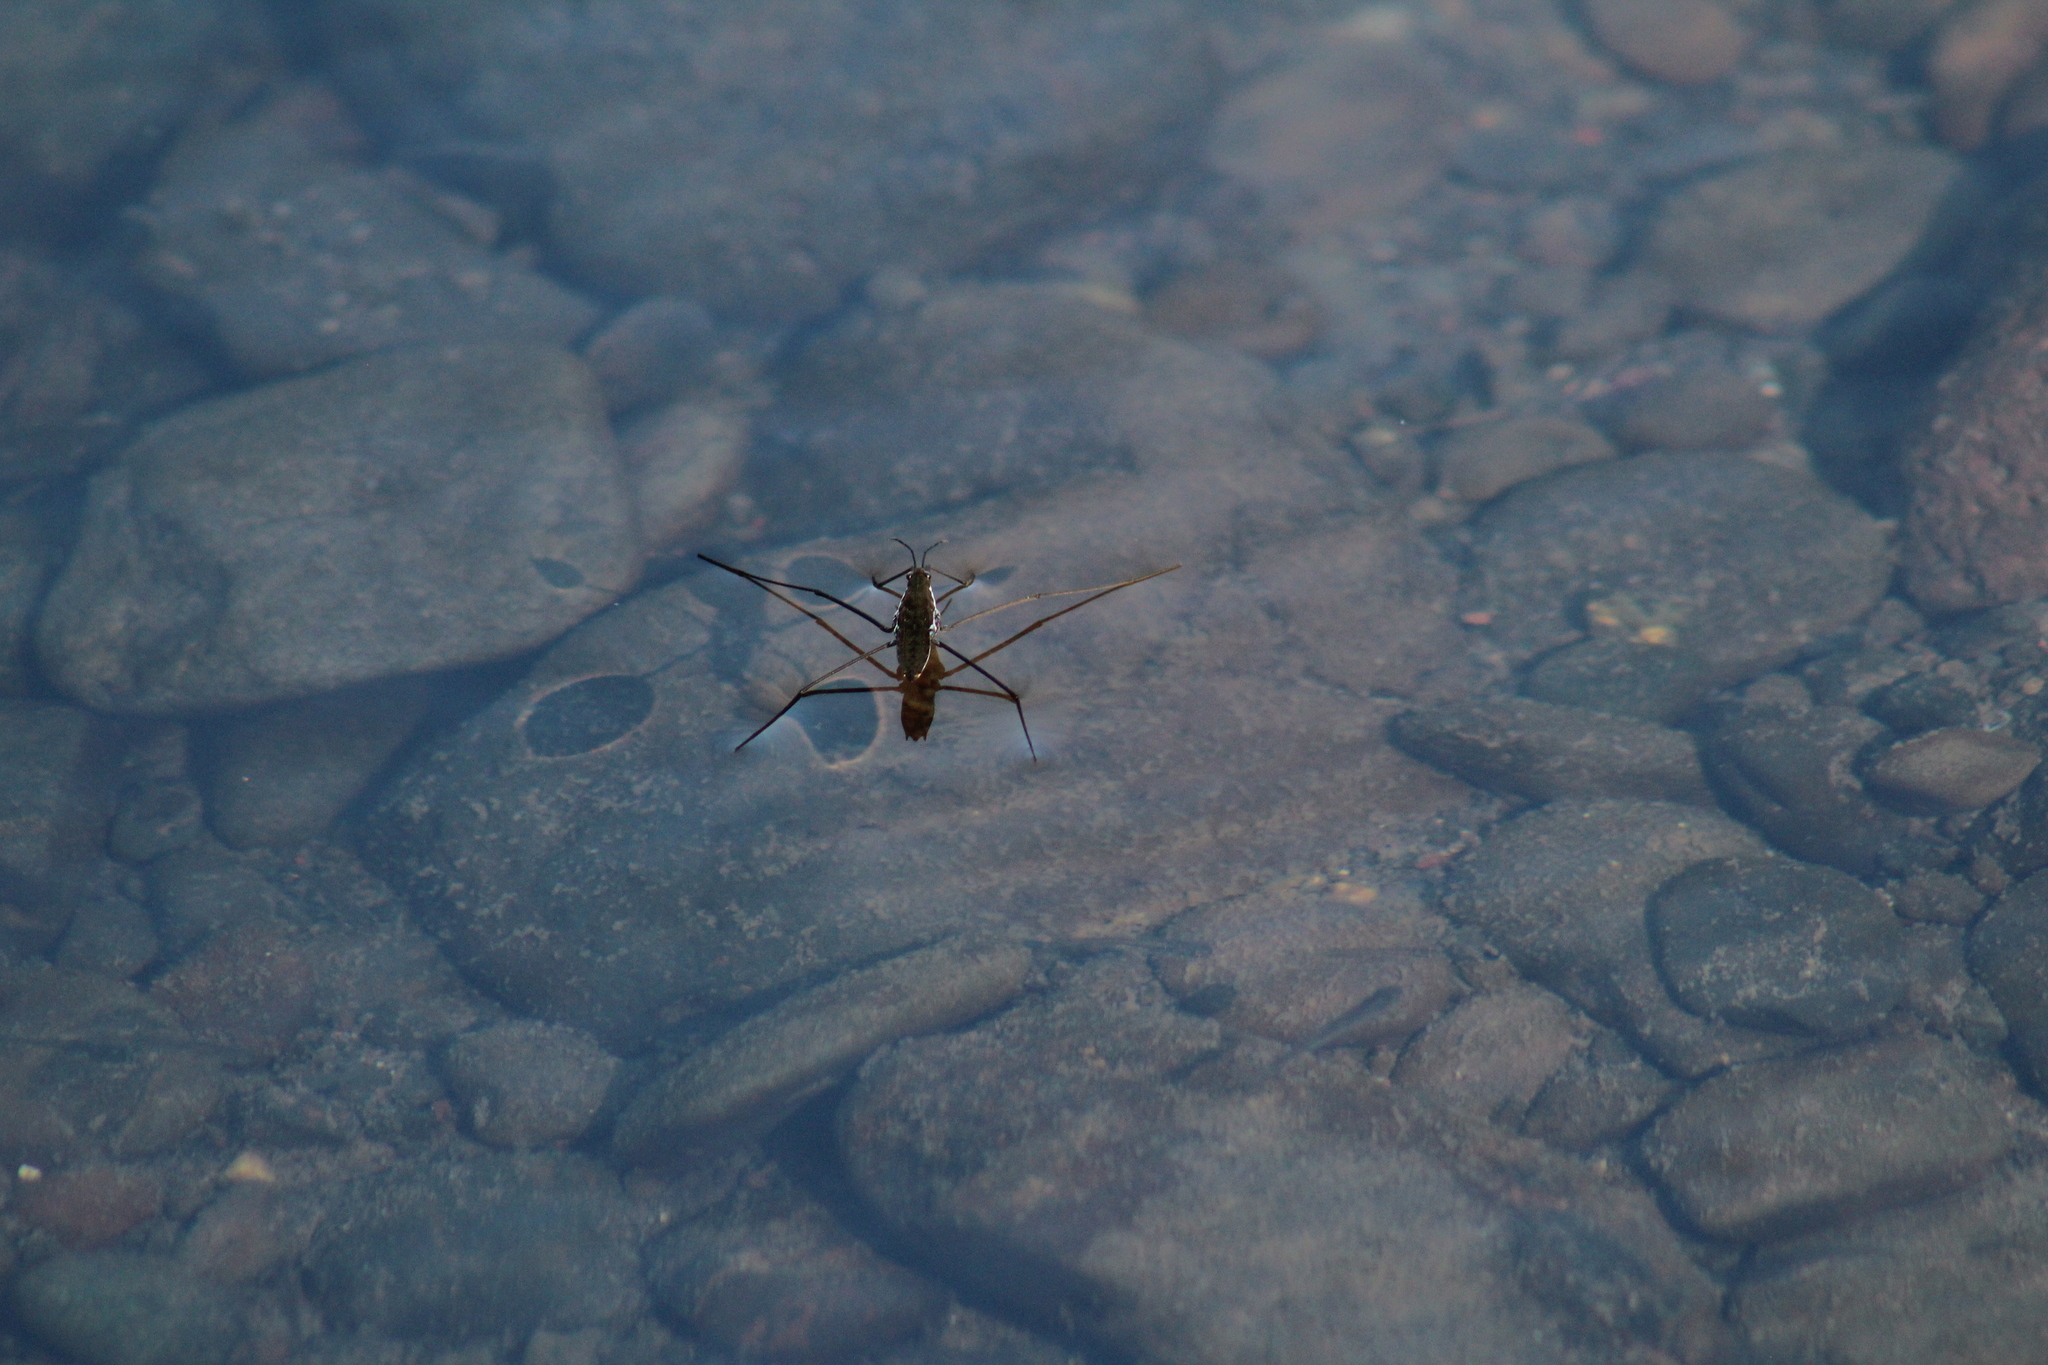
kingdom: Animalia
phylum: Arthropoda
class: Insecta
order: Hemiptera
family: Gerridae
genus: Aquarius
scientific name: Aquarius remigis
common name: Common water strider
